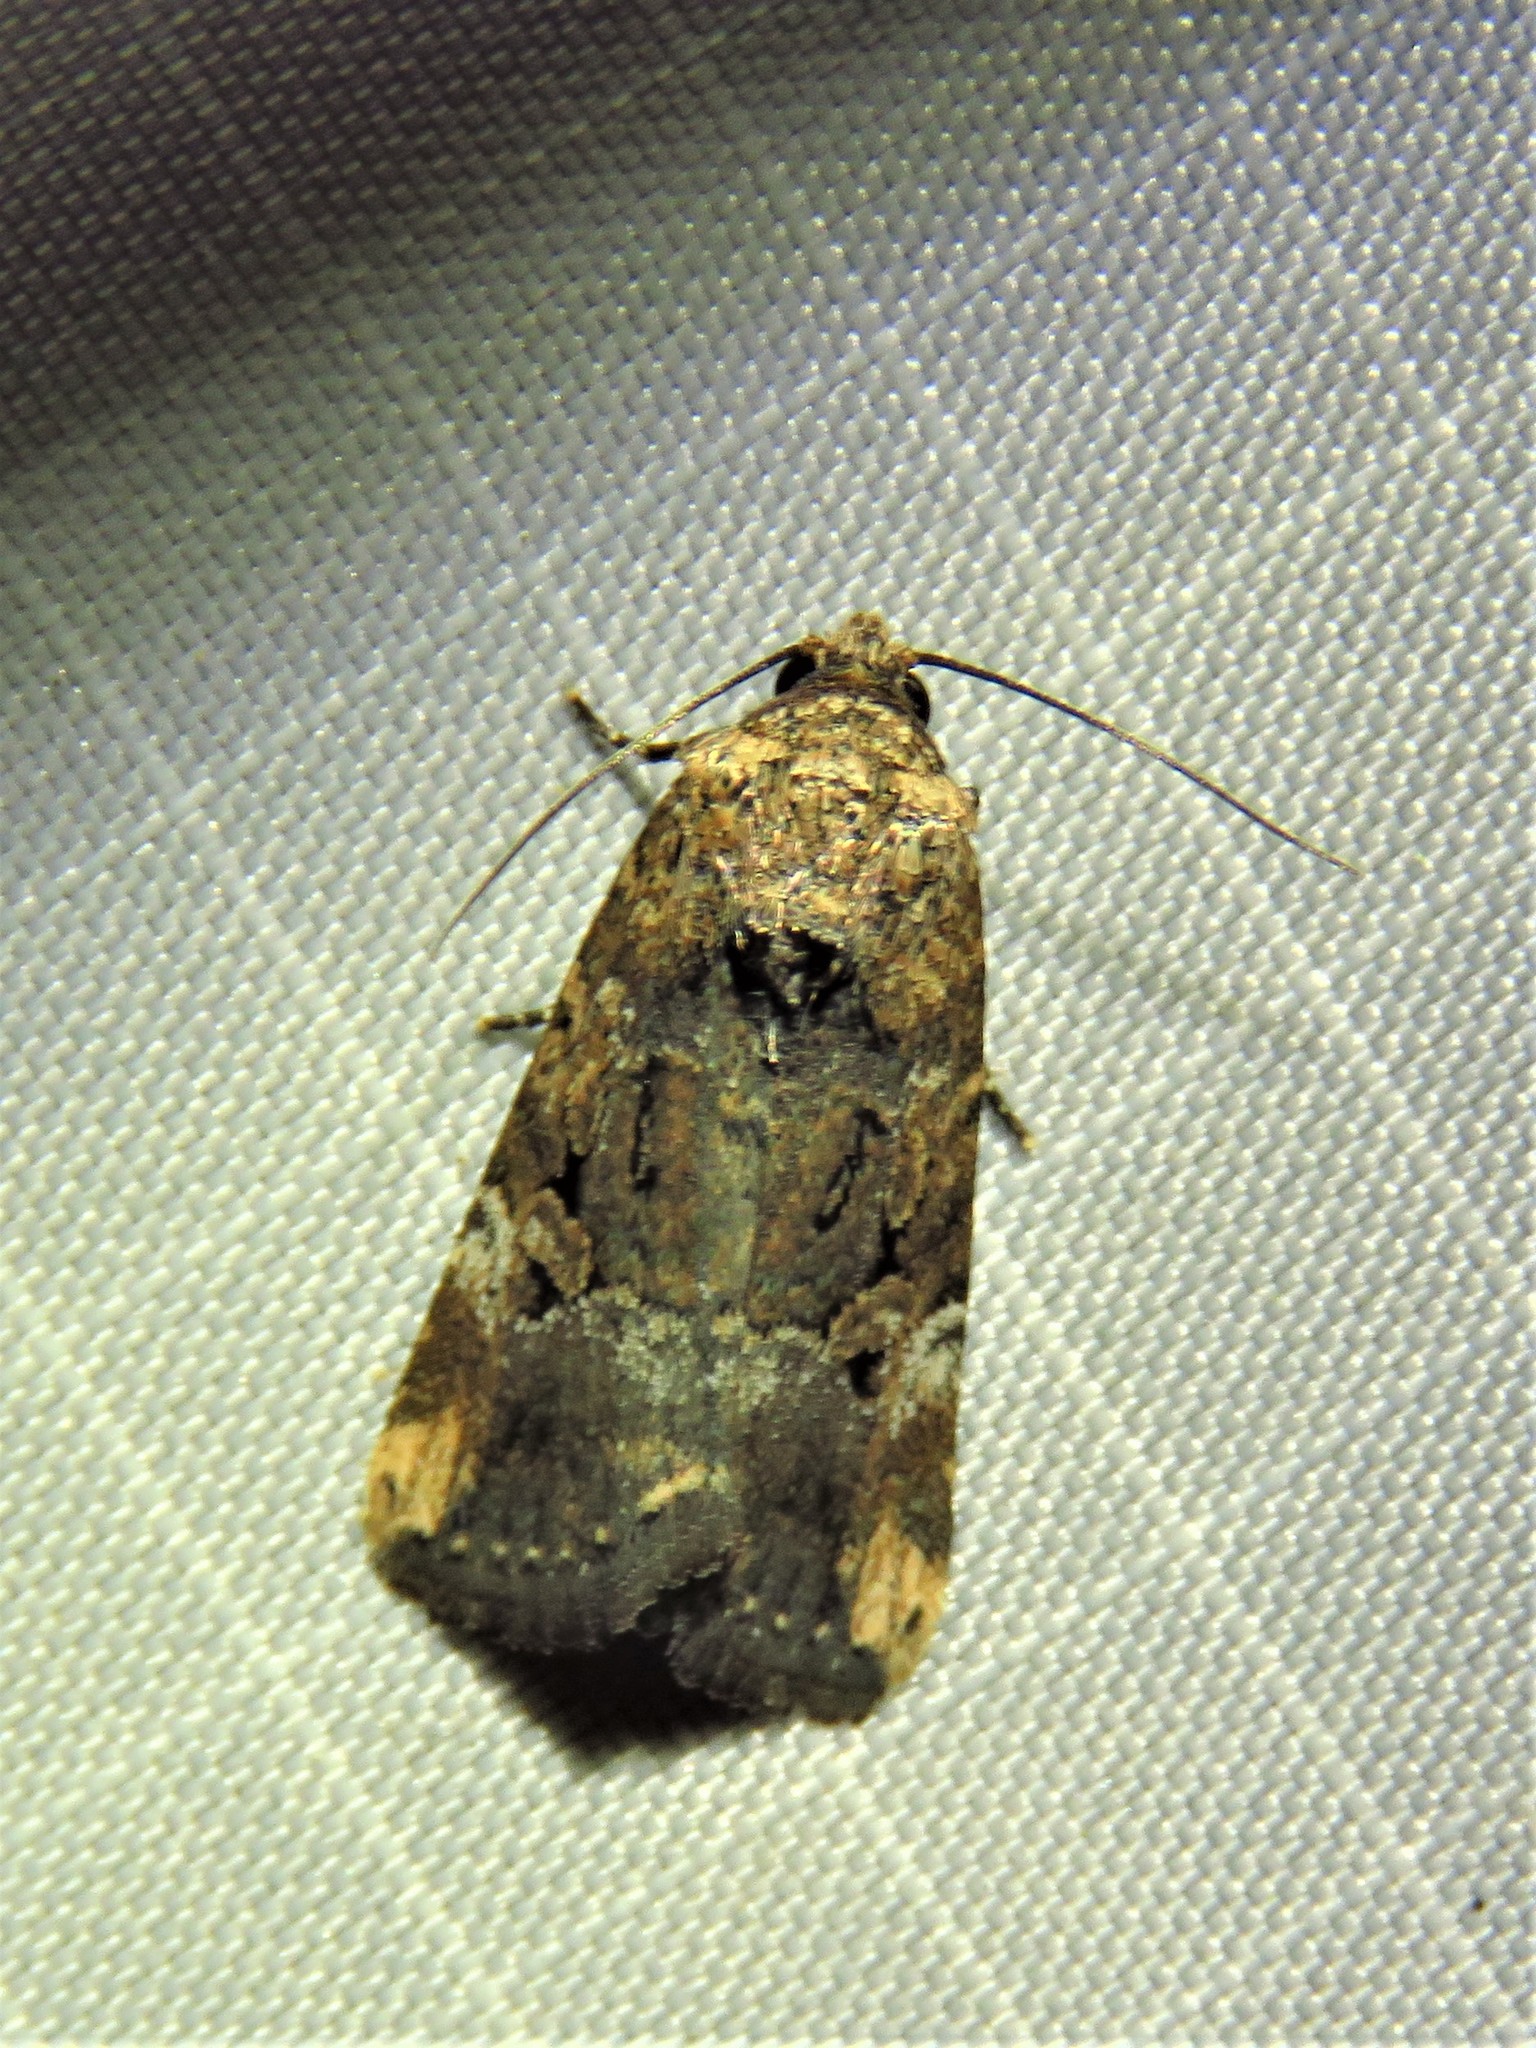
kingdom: Animalia
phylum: Arthropoda
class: Insecta
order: Lepidoptera
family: Noctuidae
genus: Elaphria
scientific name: Elaphria chalcedonia
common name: Chalcedony midget
